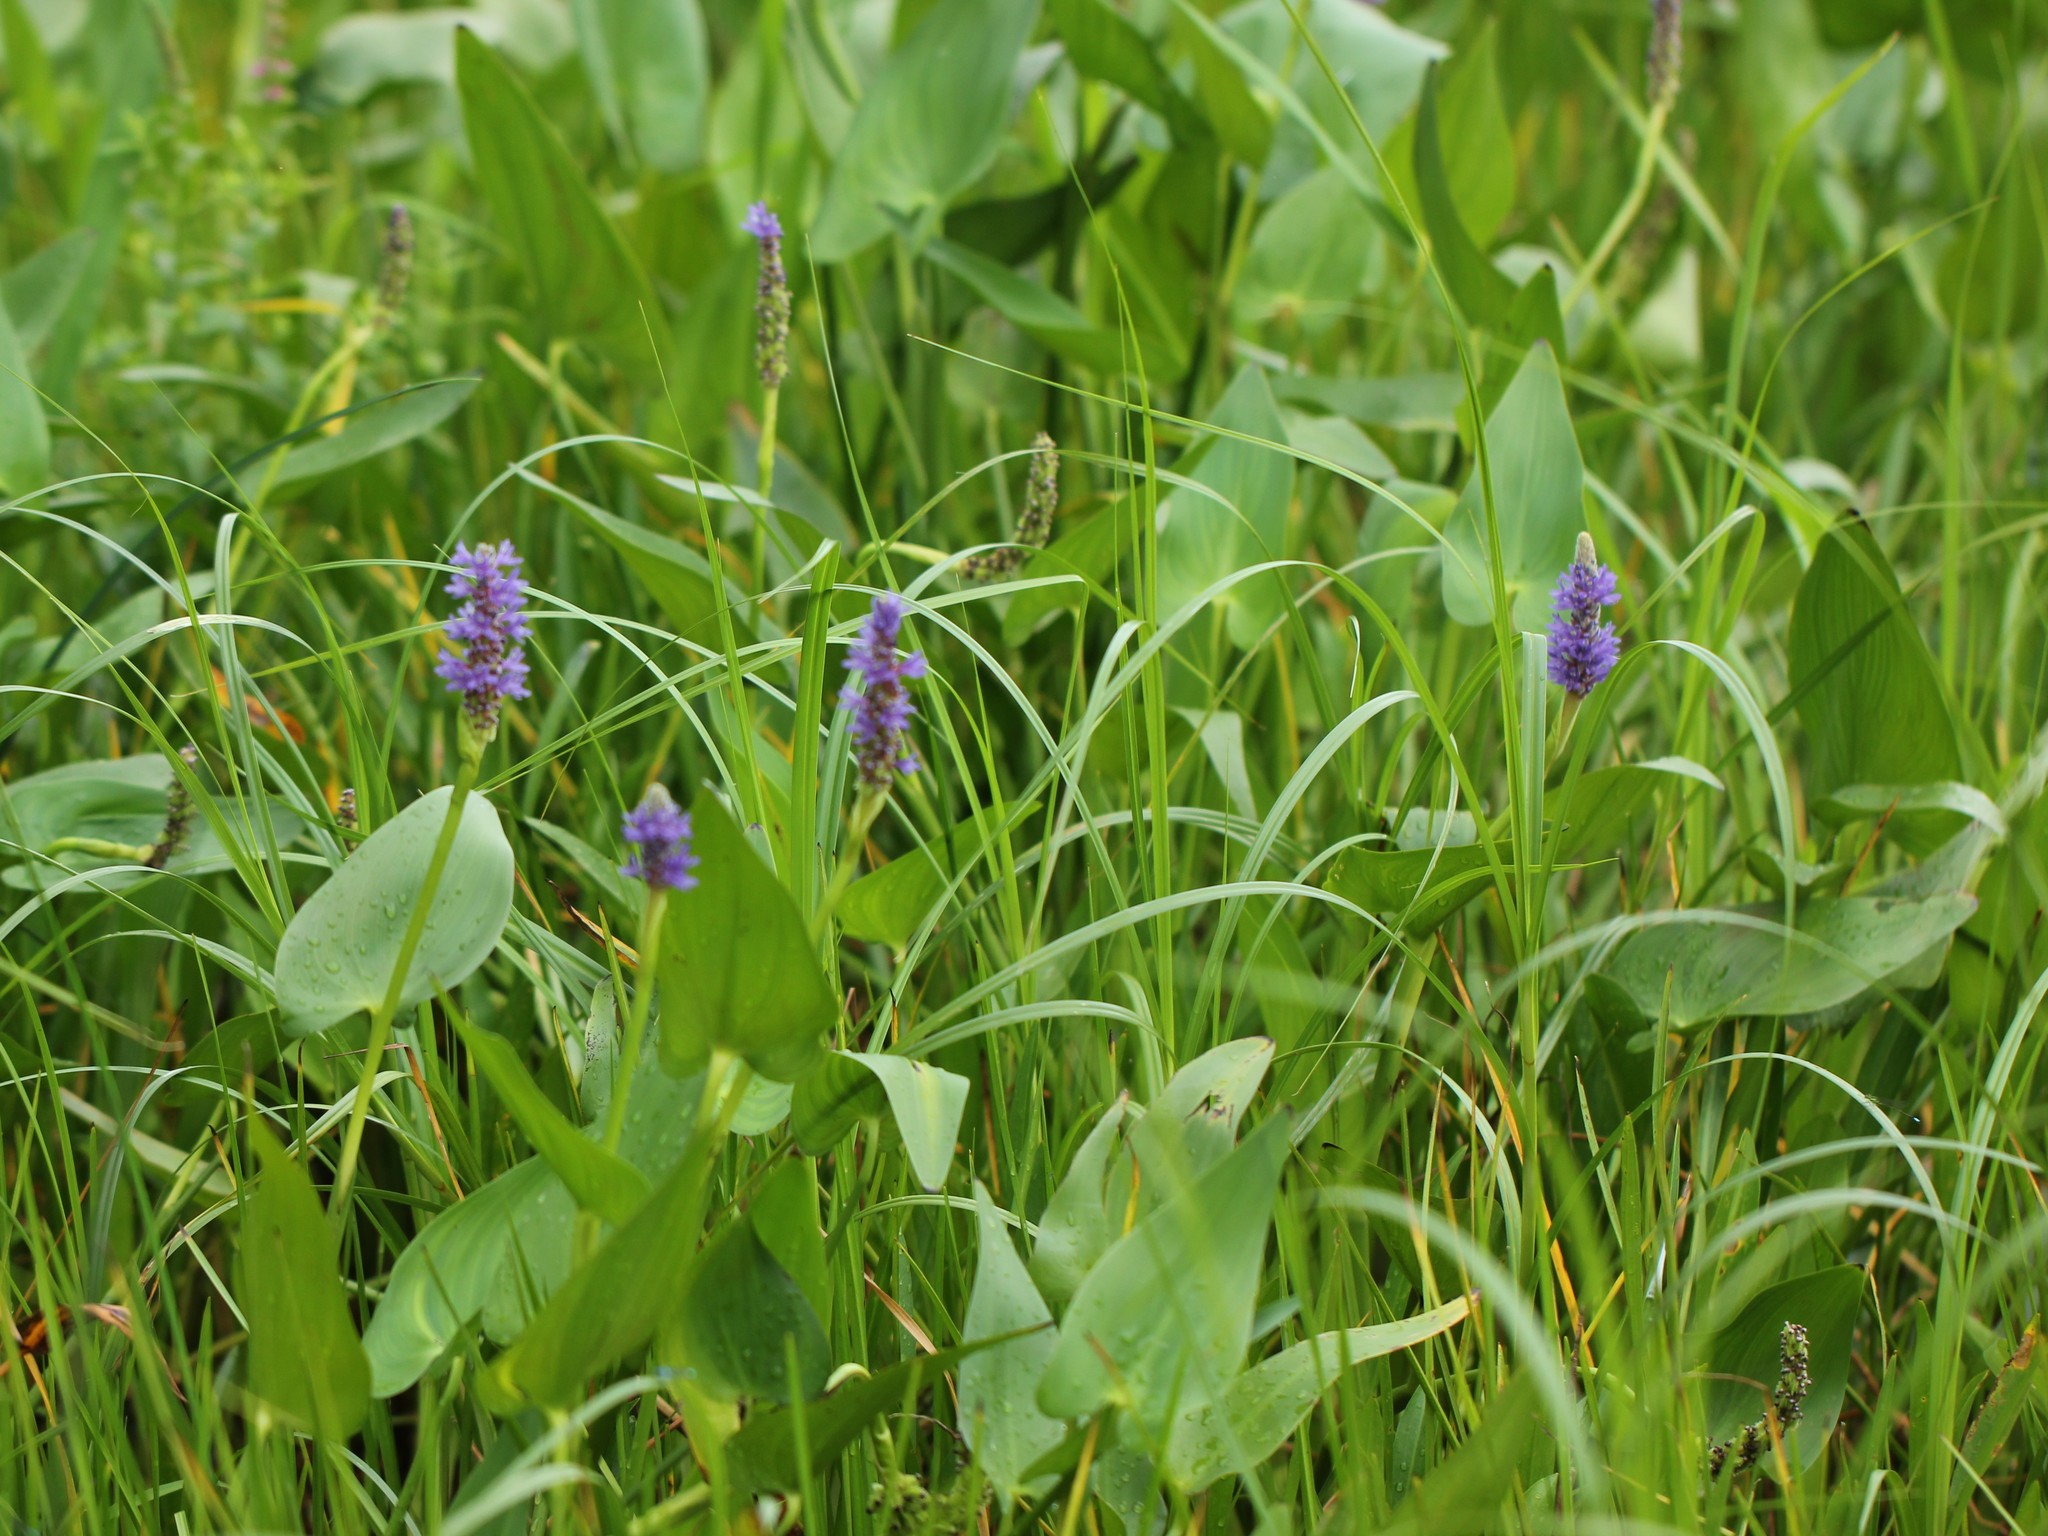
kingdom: Plantae
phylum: Tracheophyta
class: Liliopsida
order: Commelinales
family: Pontederiaceae
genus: Pontederia
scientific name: Pontederia cordata
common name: Pickerelweed
